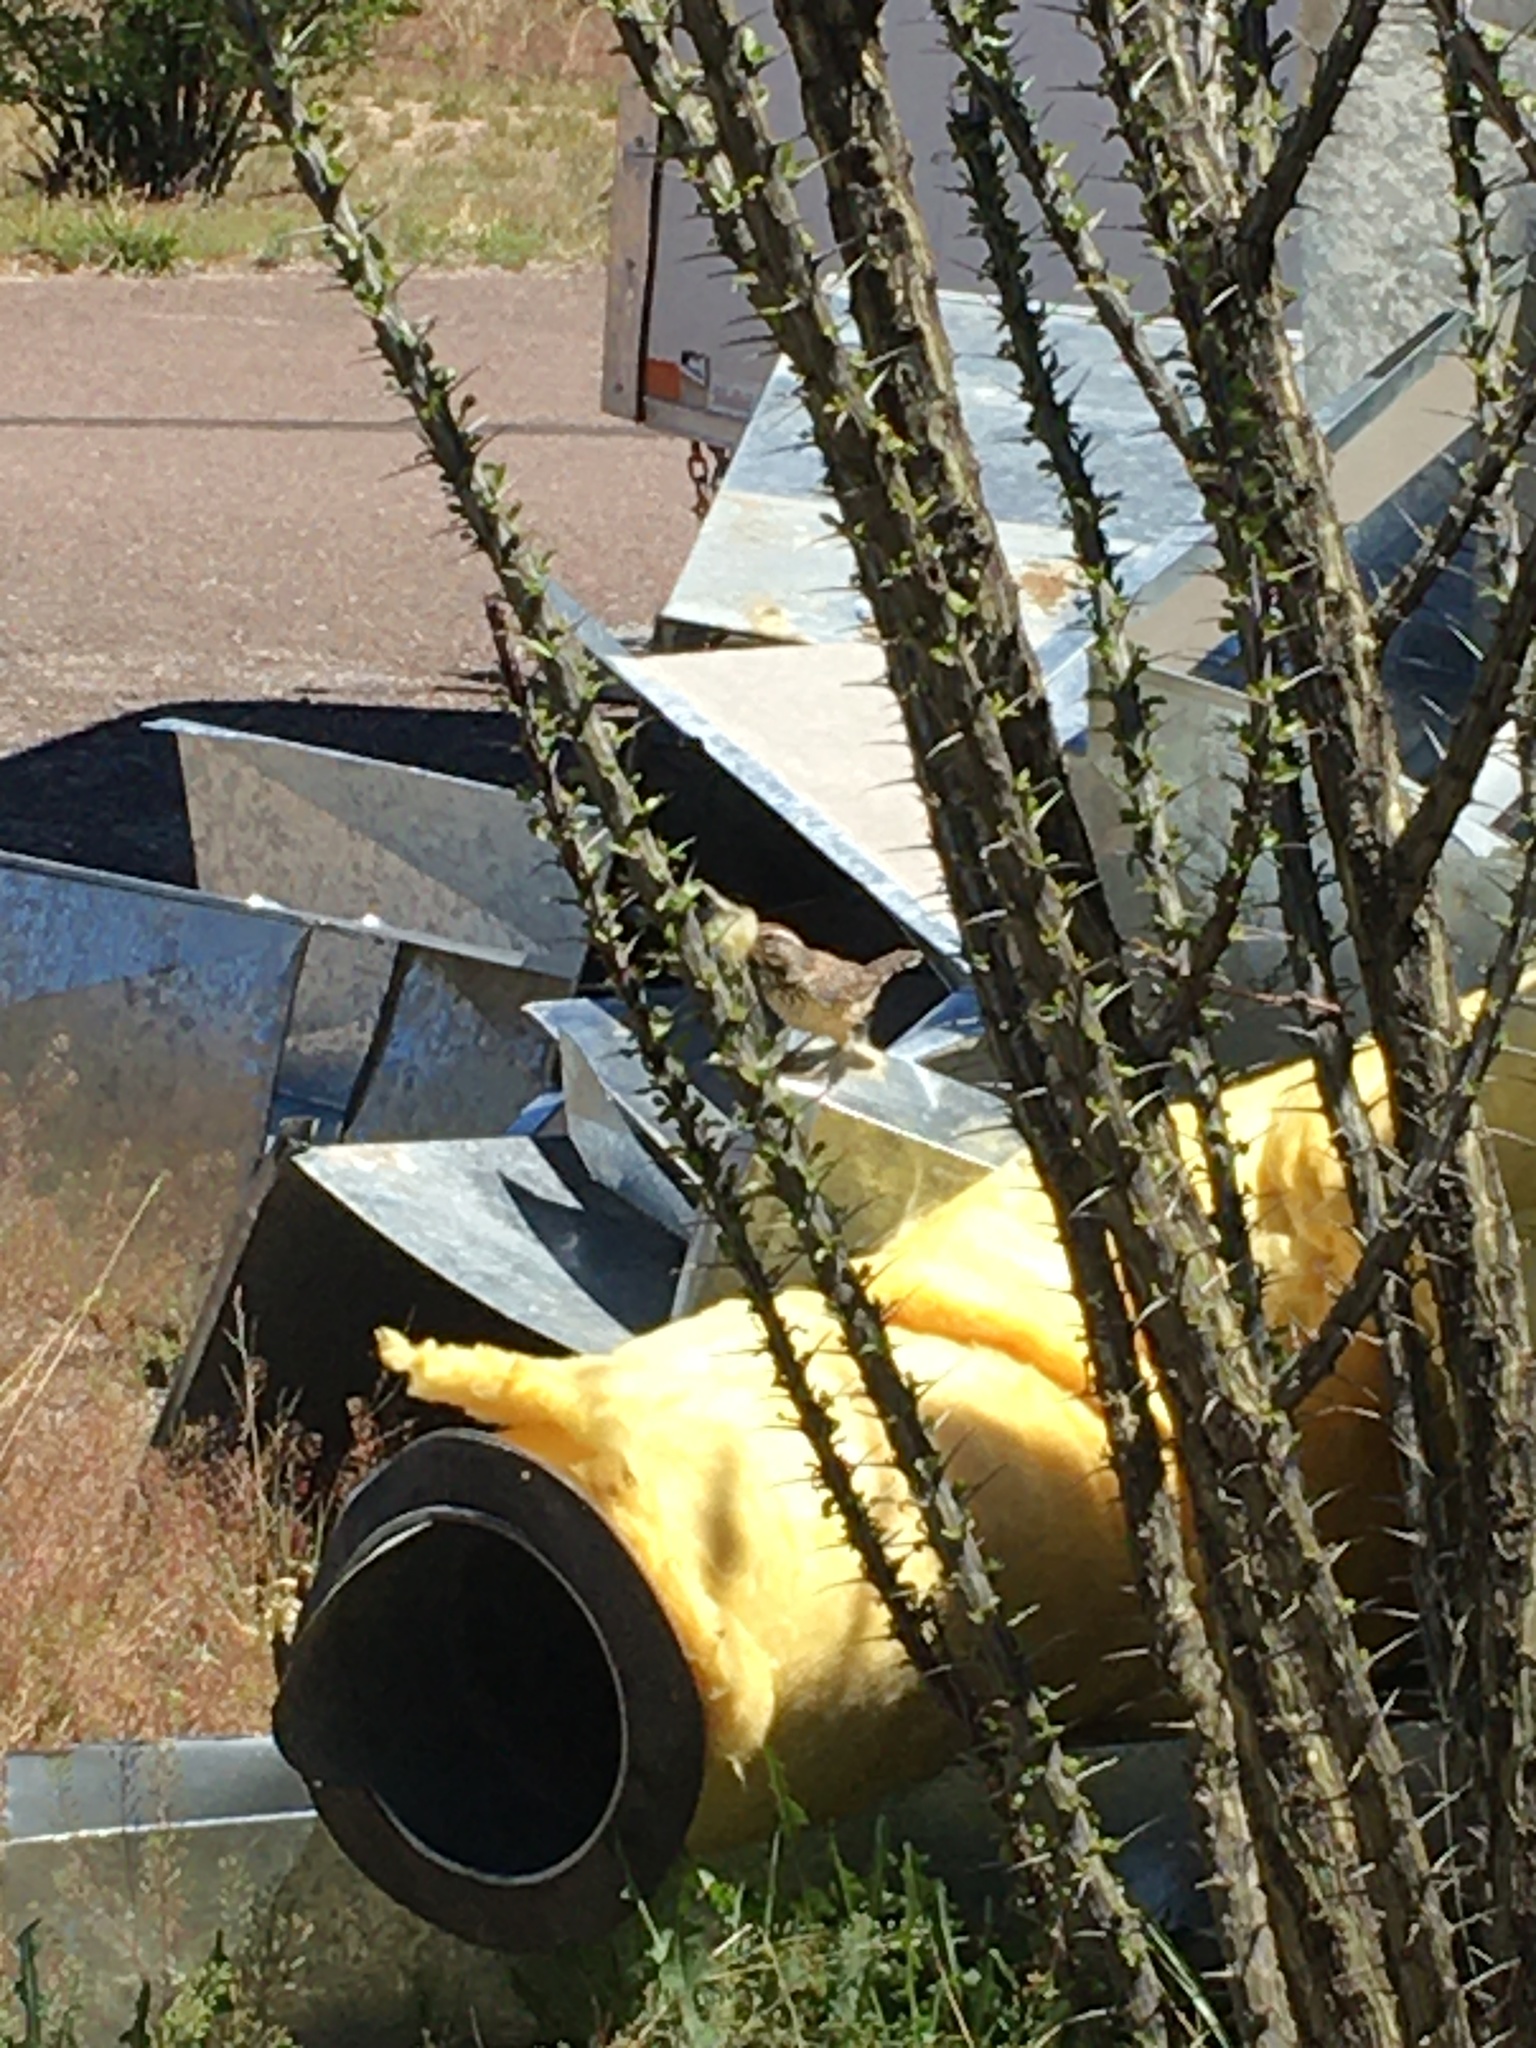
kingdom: Animalia
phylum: Chordata
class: Aves
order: Passeriformes
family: Troglodytidae
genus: Campylorhynchus
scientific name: Campylorhynchus brunneicapillus
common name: Cactus wren
